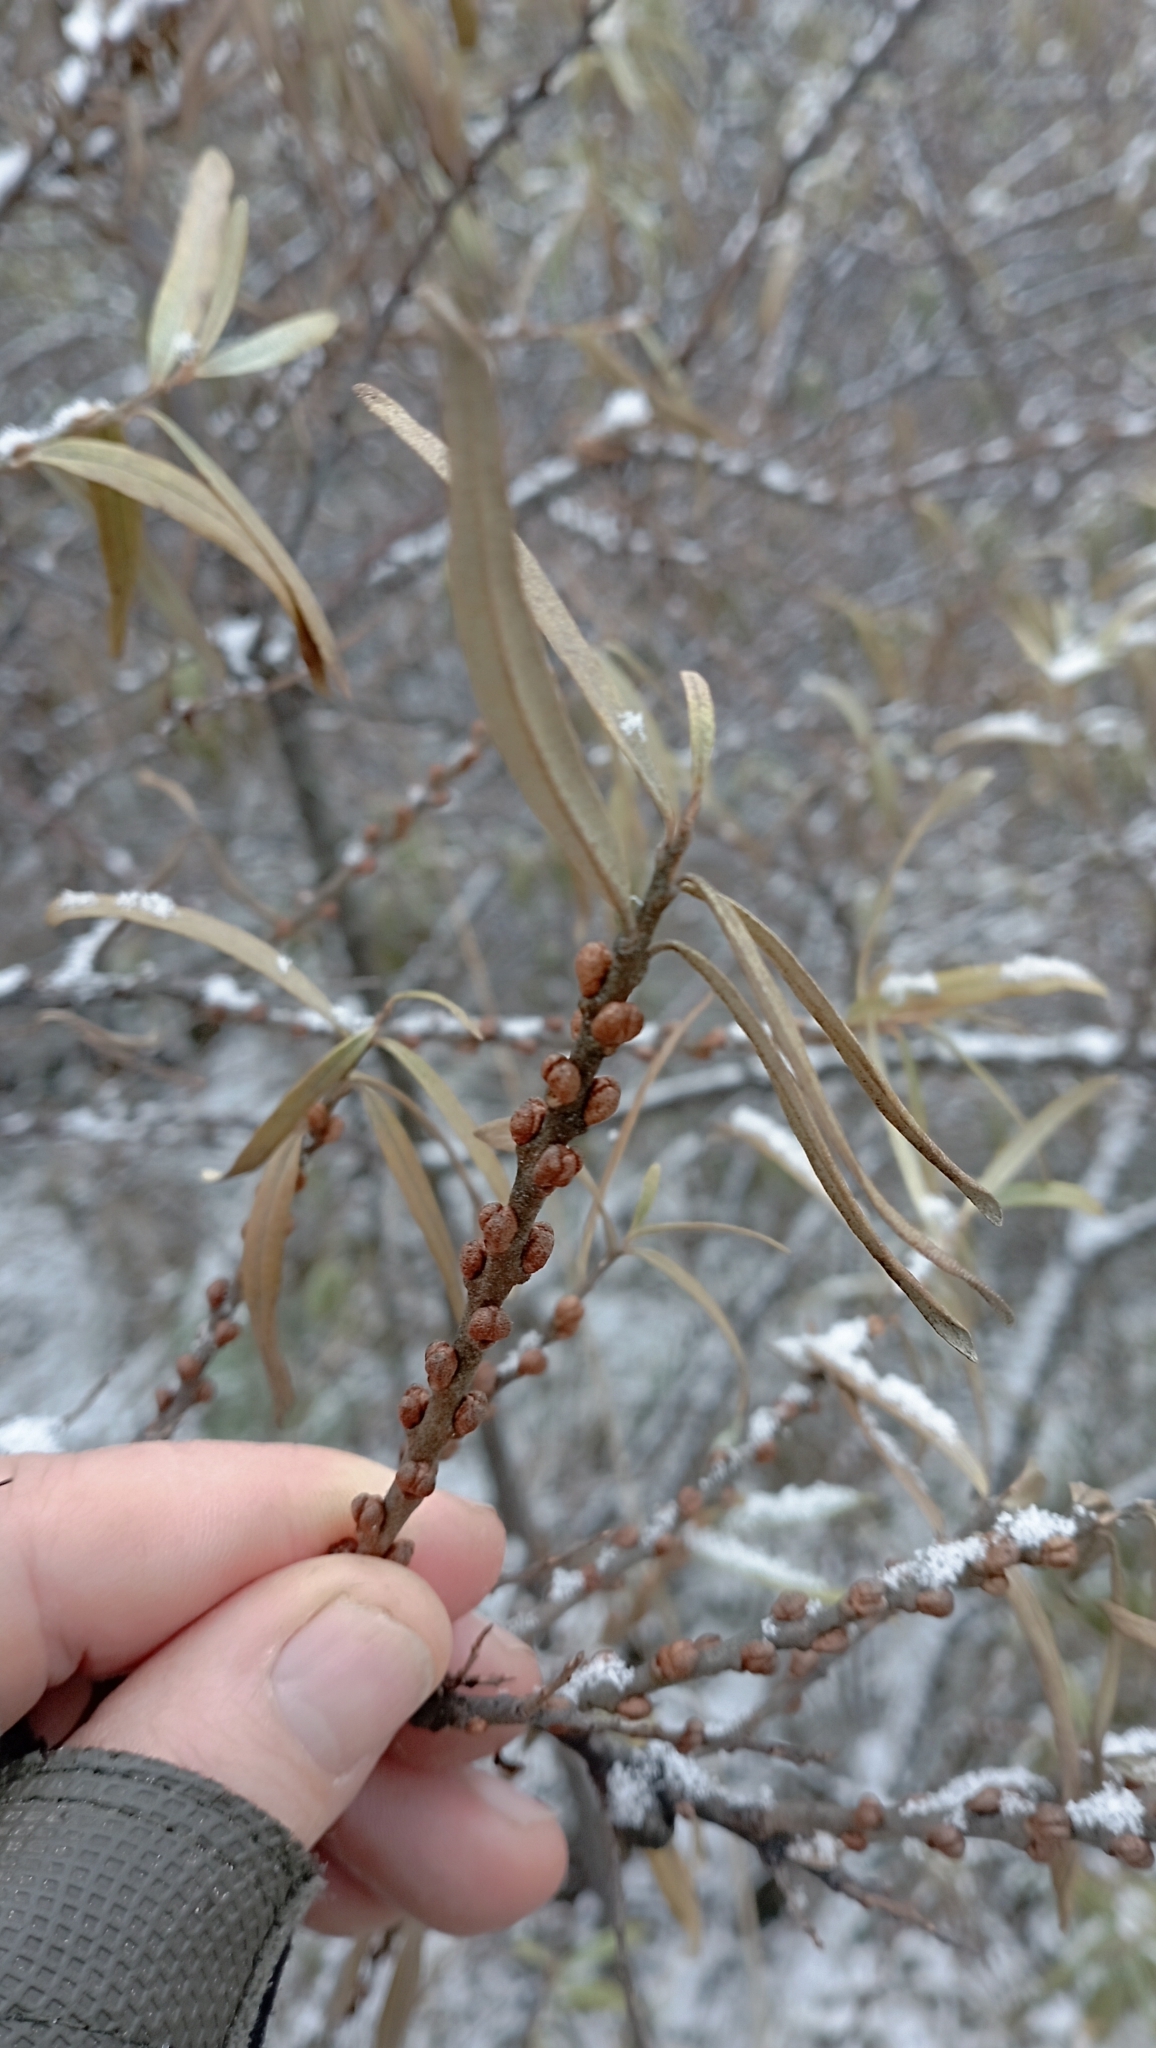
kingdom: Plantae
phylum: Tracheophyta
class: Magnoliopsida
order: Rosales
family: Elaeagnaceae
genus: Hippophae
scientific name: Hippophae rhamnoides
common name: Sea-buckthorn
